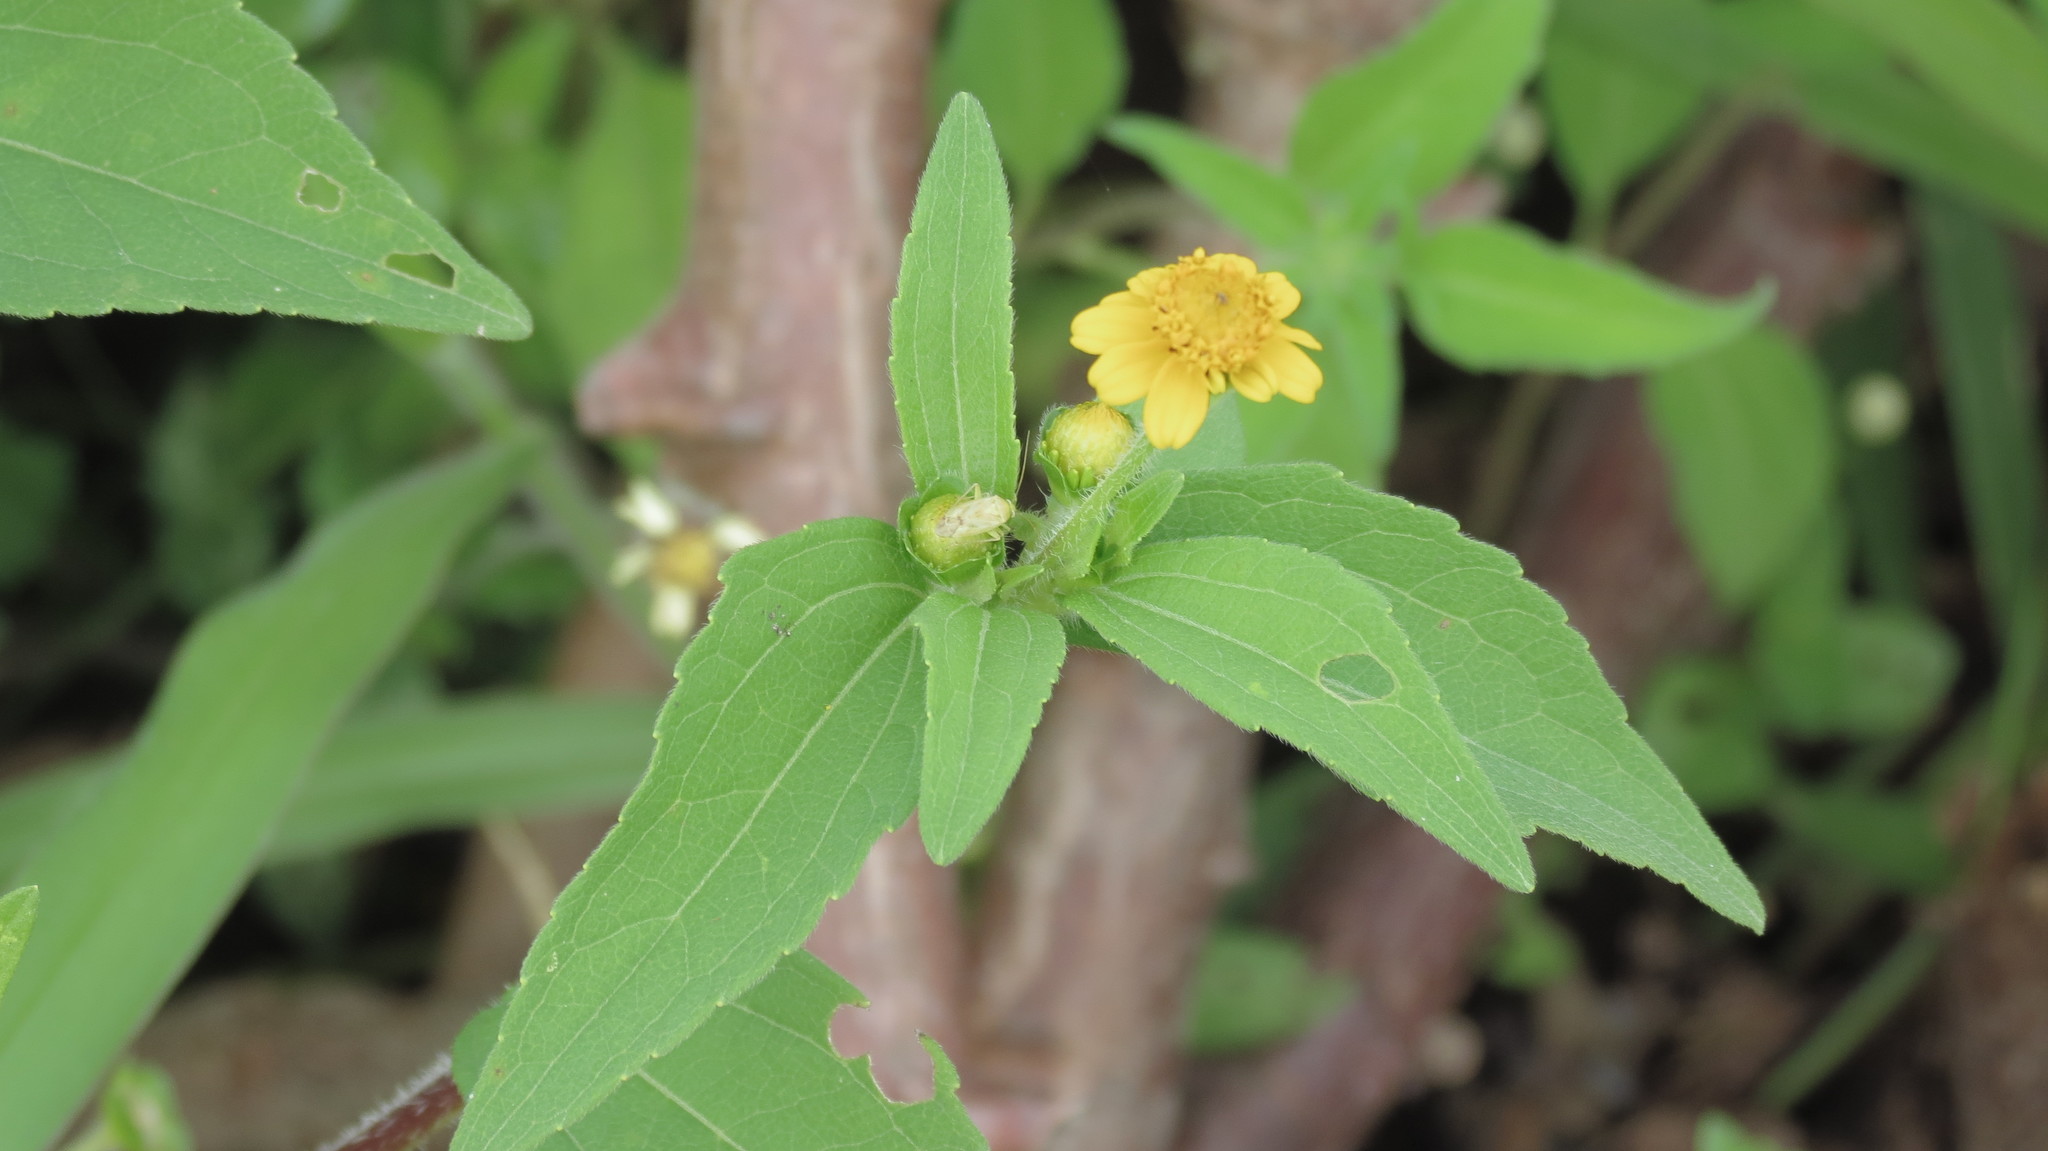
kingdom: Plantae
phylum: Tracheophyta
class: Magnoliopsida
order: Asterales
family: Asteraceae
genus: Melampodium
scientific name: Melampodium divaricatum
